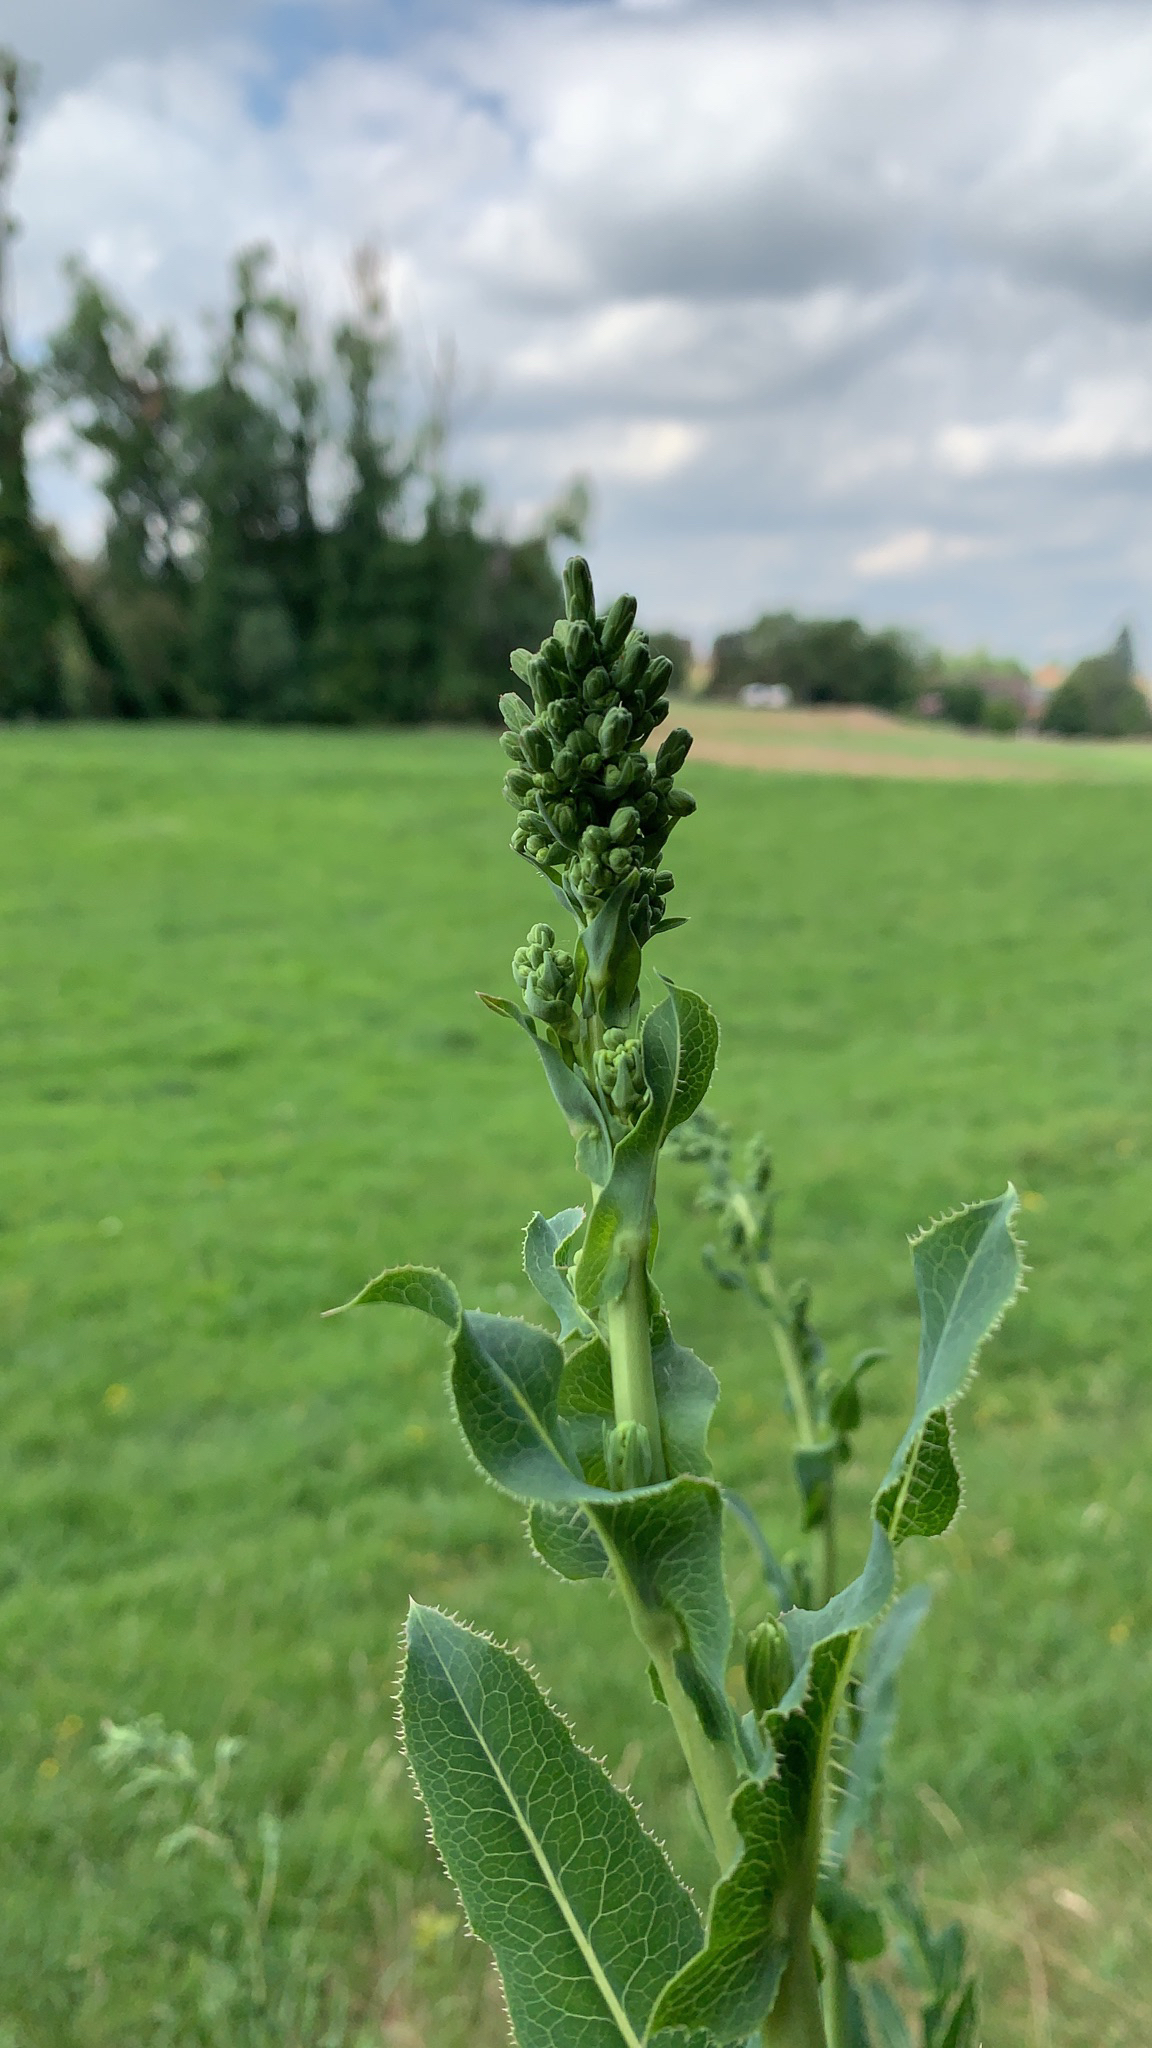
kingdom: Plantae
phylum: Tracheophyta
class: Magnoliopsida
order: Asterales
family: Asteraceae
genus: Lactuca
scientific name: Lactuca serriola
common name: Prickly lettuce
